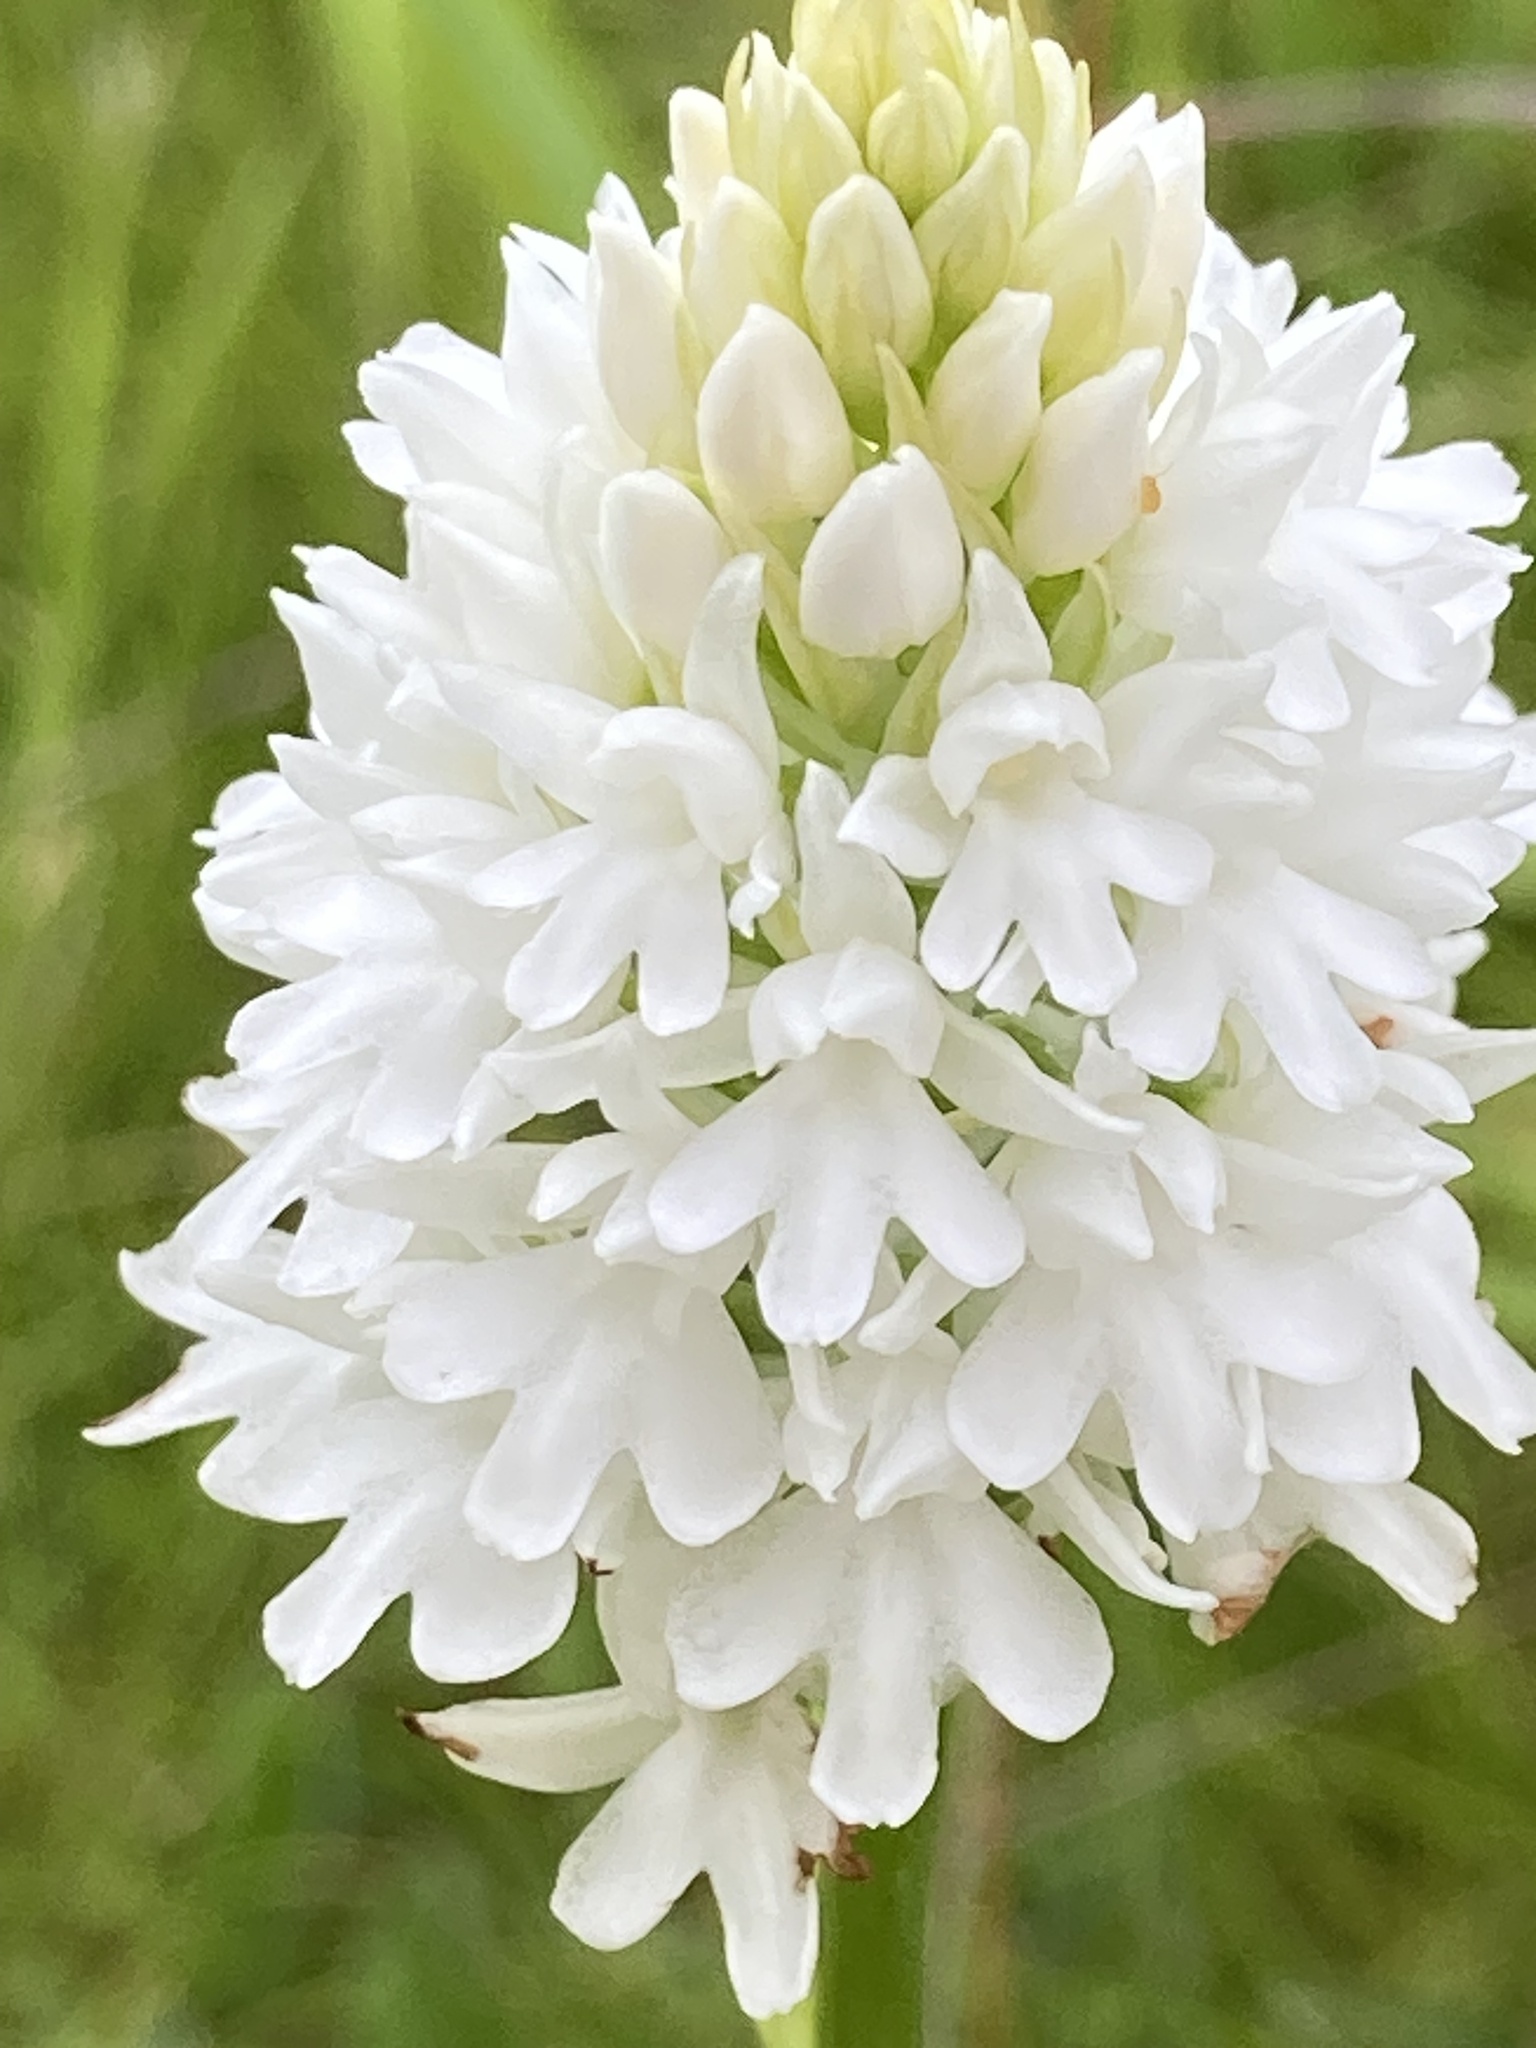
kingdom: Plantae
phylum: Tracheophyta
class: Liliopsida
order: Asparagales
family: Orchidaceae
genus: Anacamptis
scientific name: Anacamptis pyramidalis
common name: Pyramidal orchid
